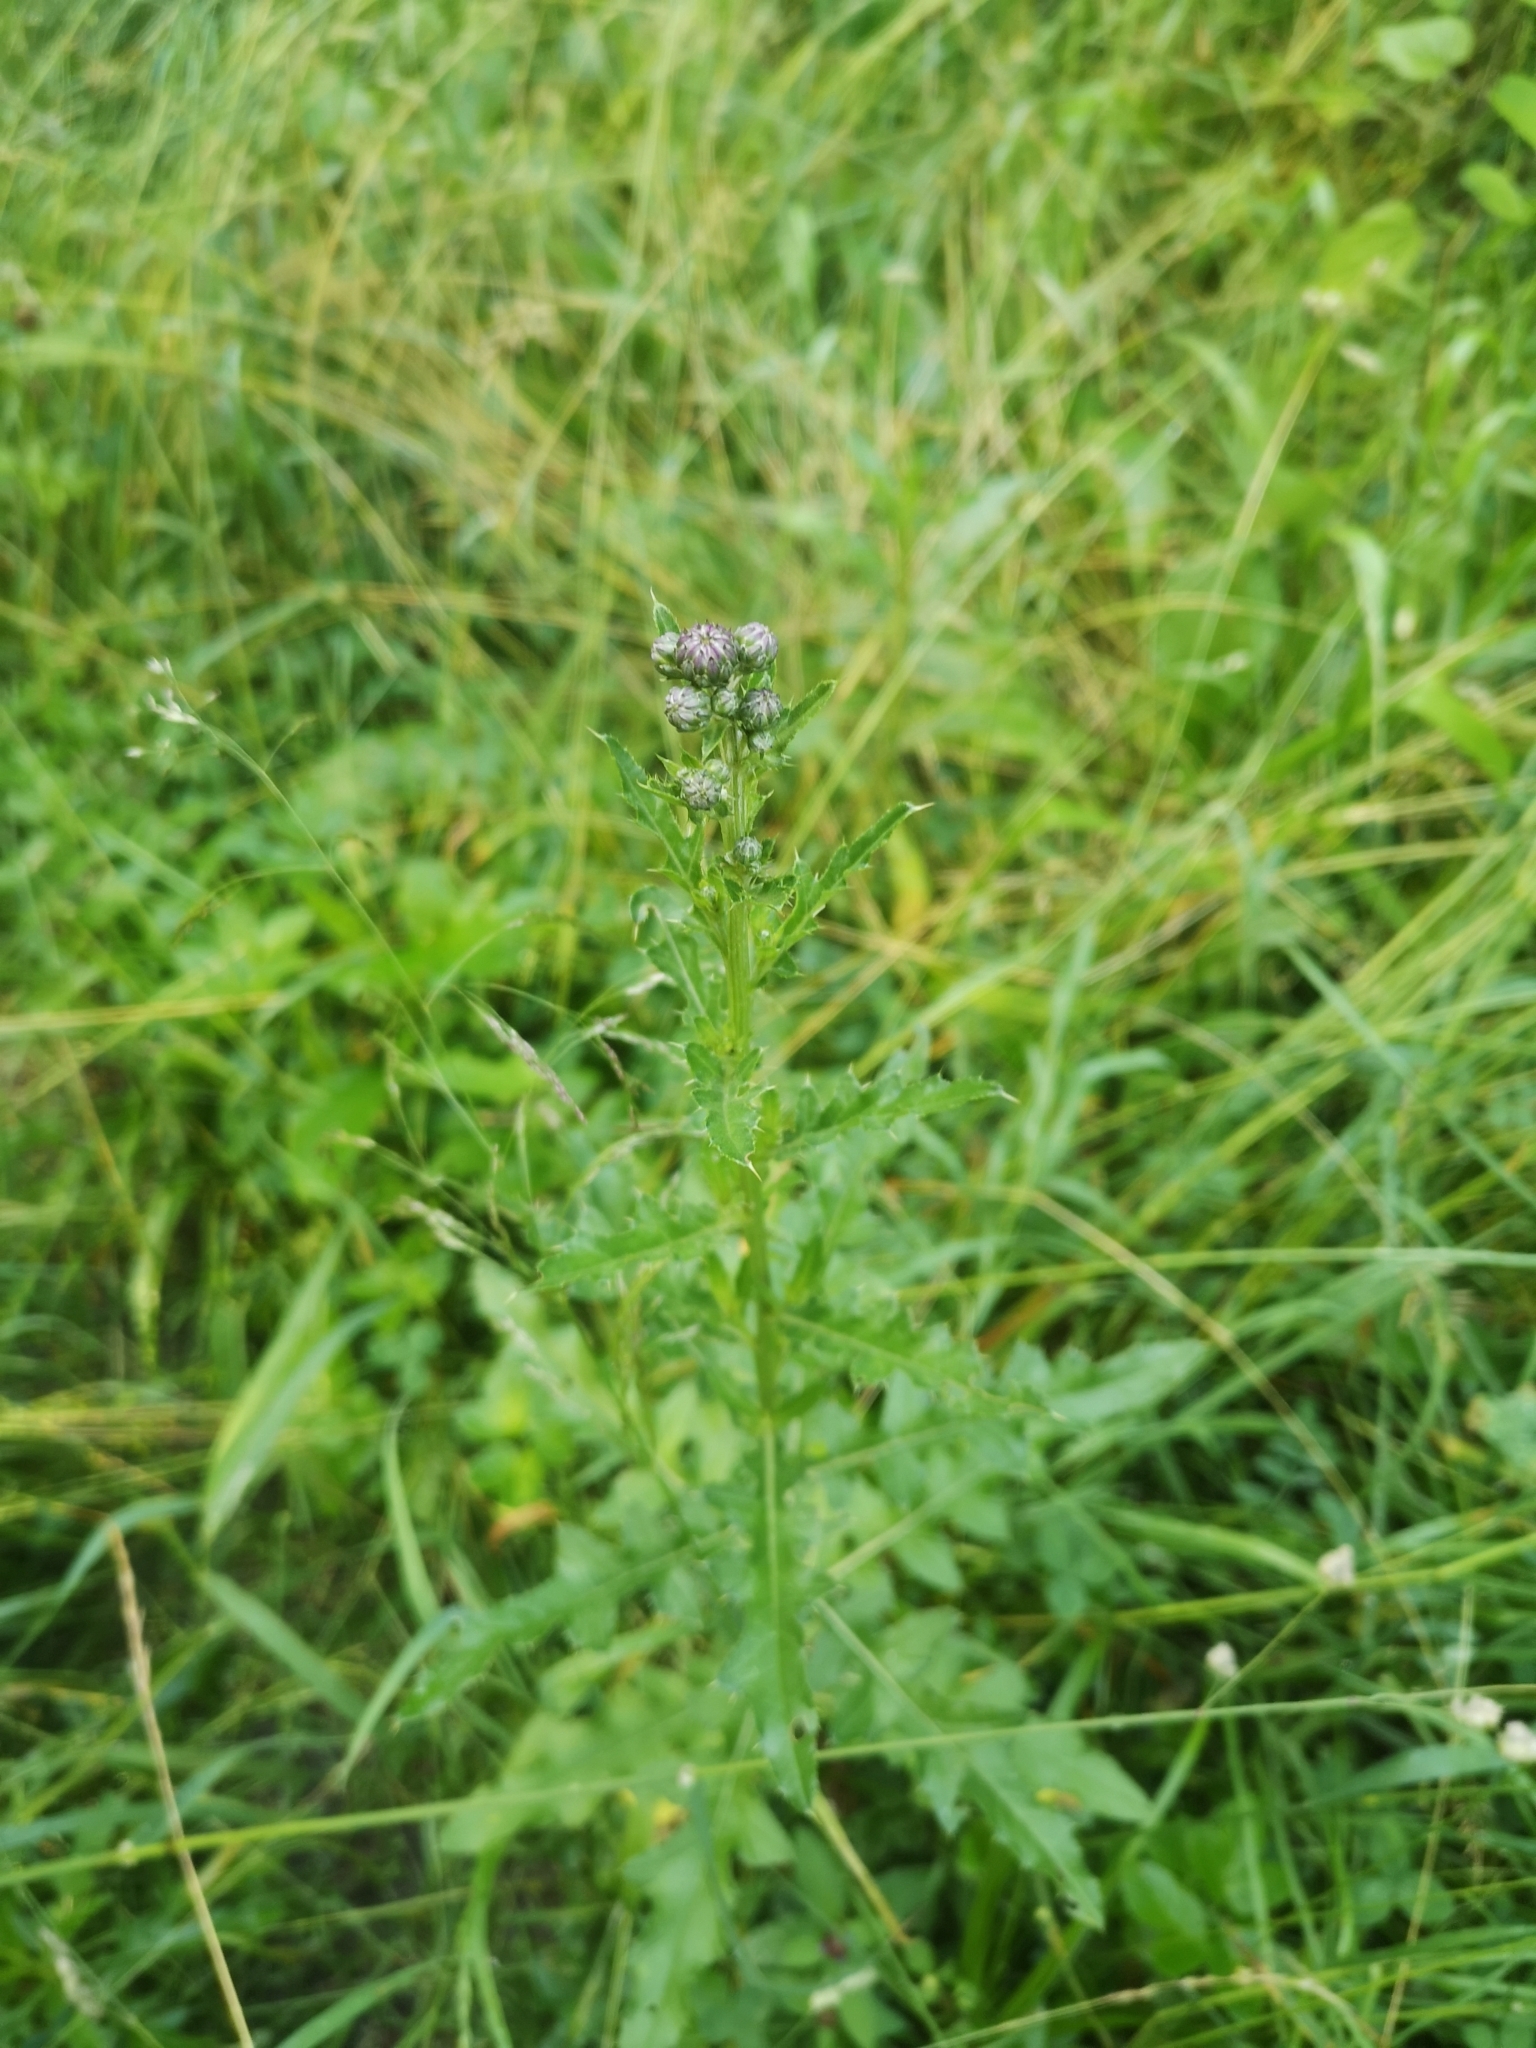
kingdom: Plantae
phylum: Tracheophyta
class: Magnoliopsida
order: Asterales
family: Asteraceae
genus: Cirsium
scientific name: Cirsium arvense
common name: Creeping thistle
